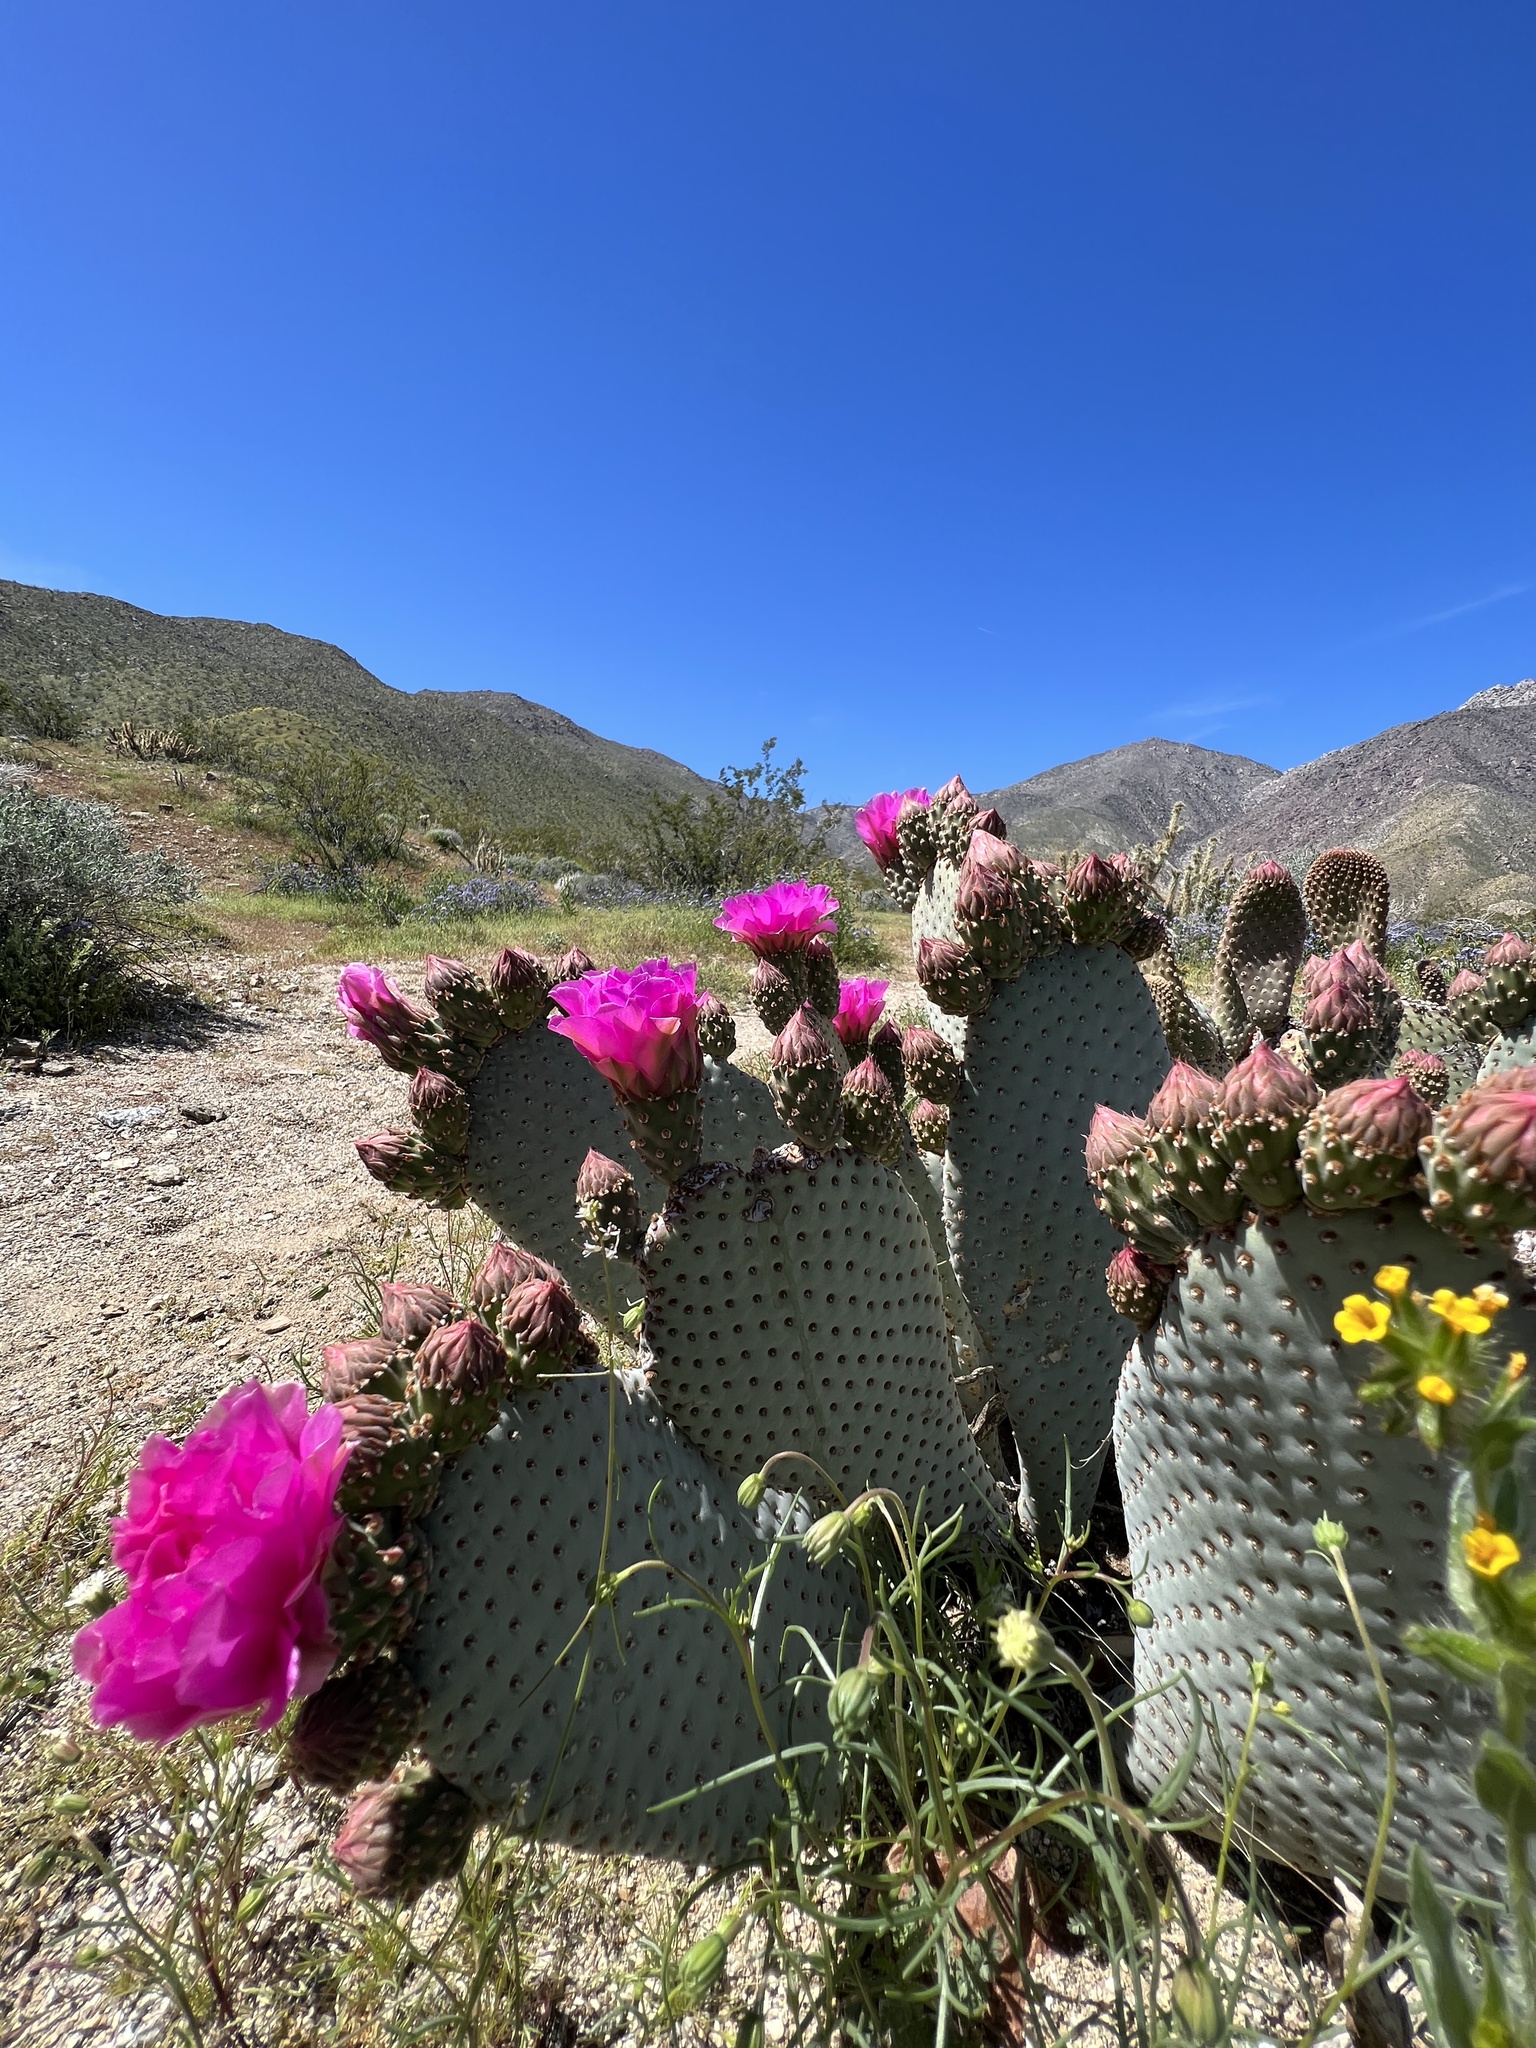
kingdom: Plantae
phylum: Tracheophyta
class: Magnoliopsida
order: Caryophyllales
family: Cactaceae
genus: Opuntia
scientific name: Opuntia basilaris
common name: Beavertail prickly-pear
